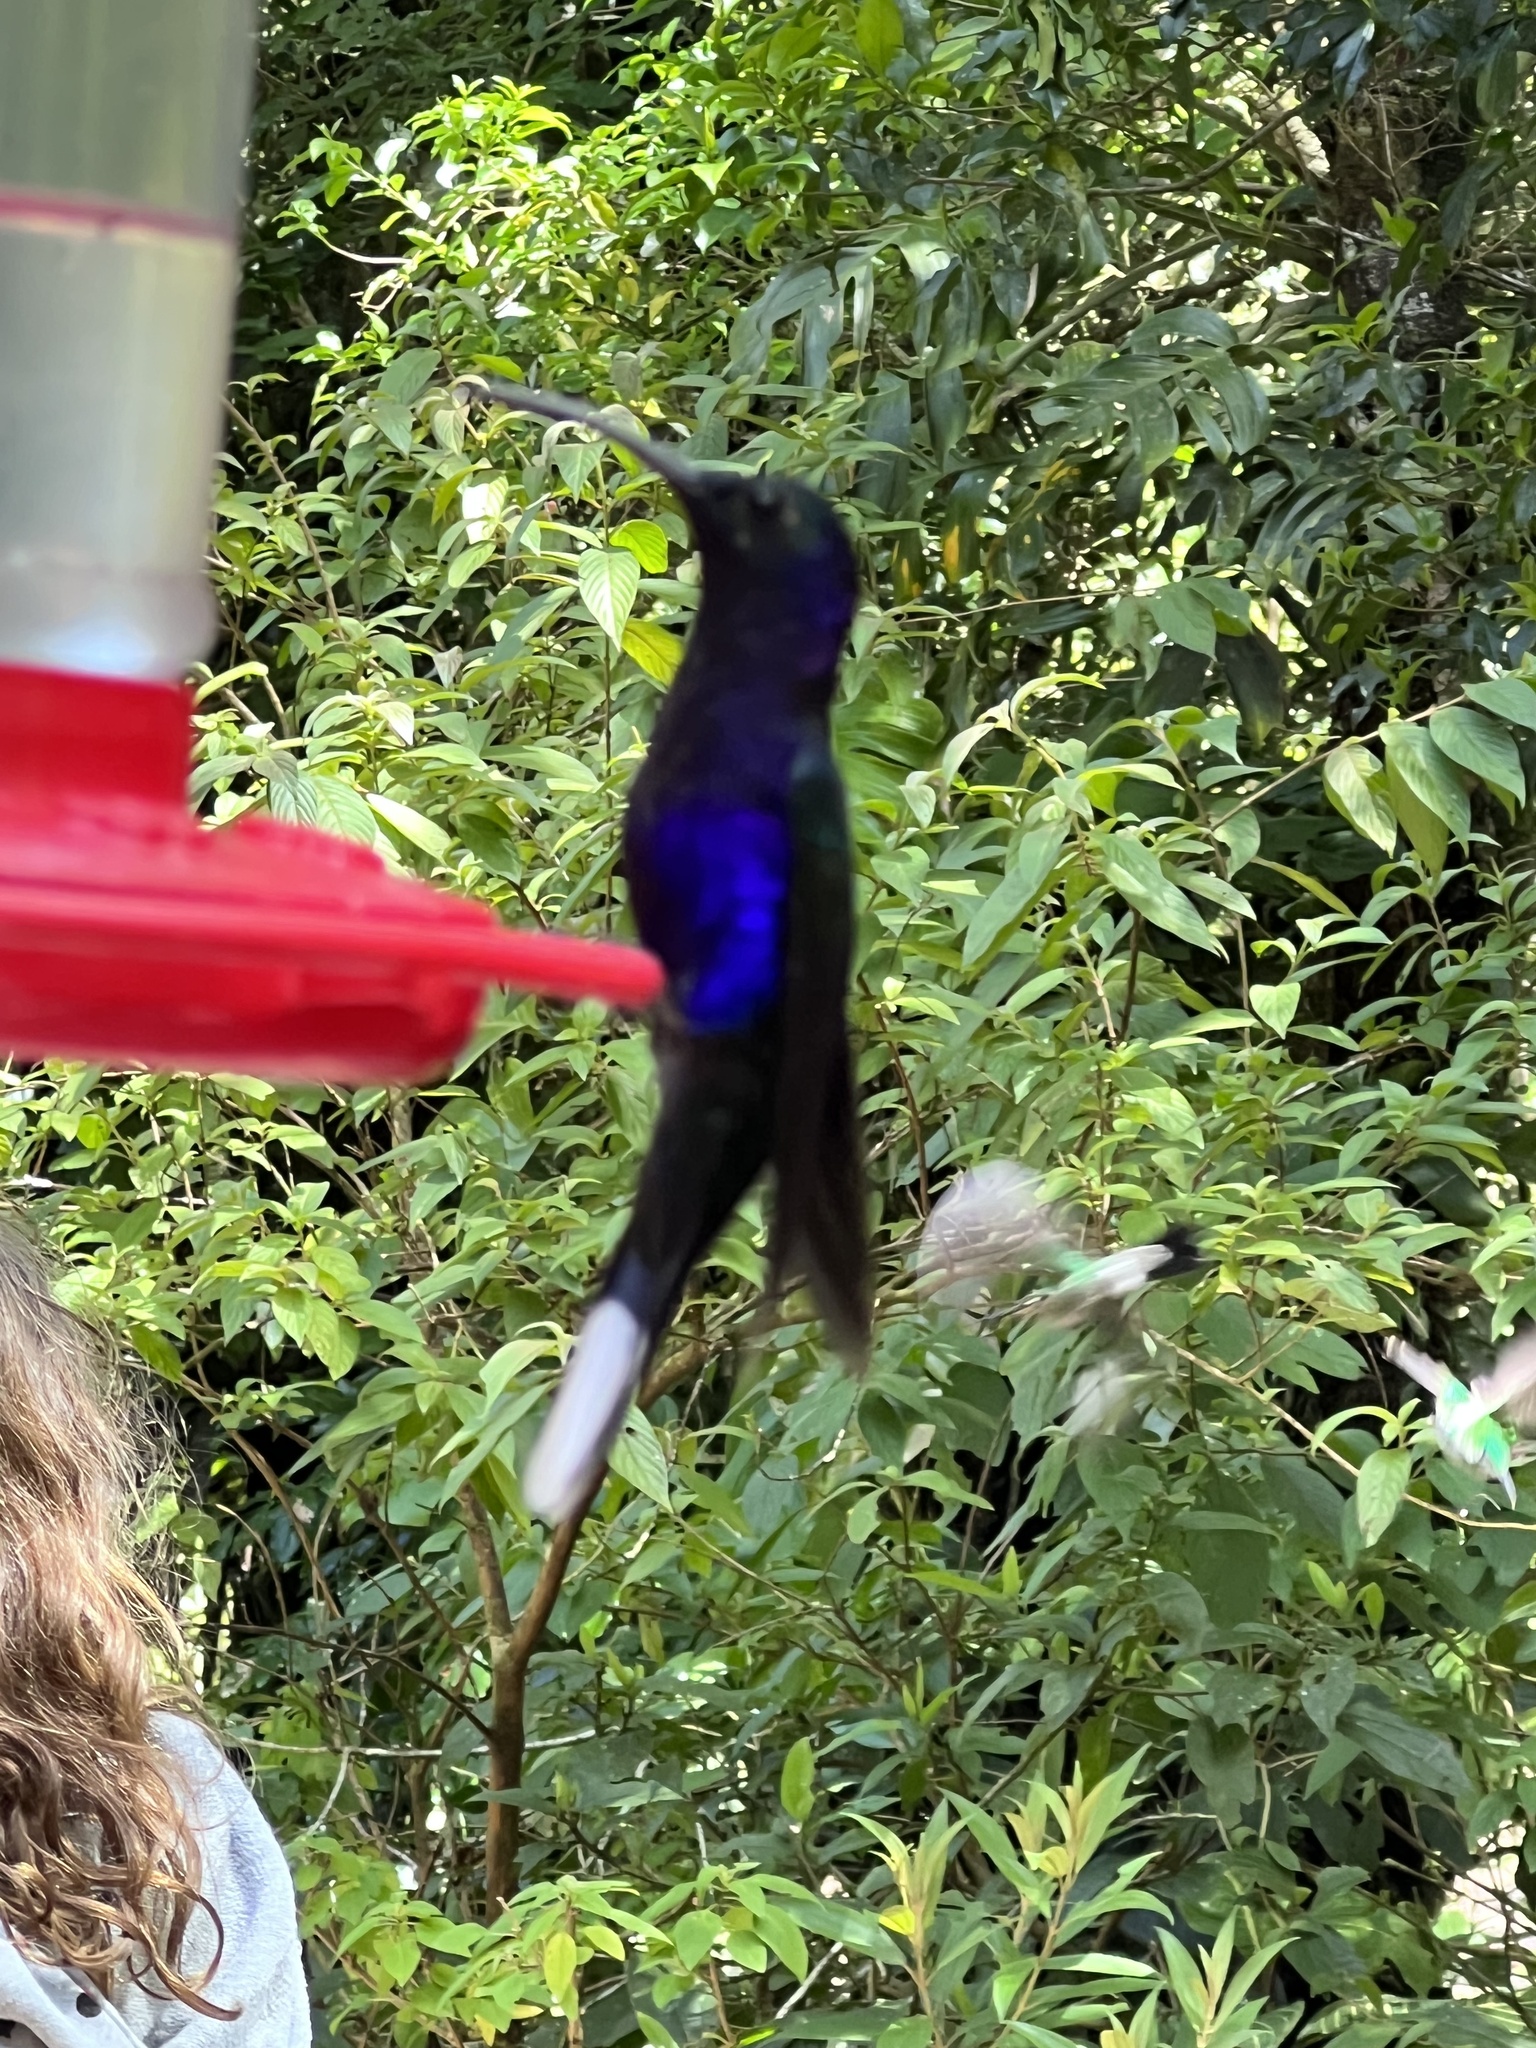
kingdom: Animalia
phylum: Chordata
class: Aves
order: Apodiformes
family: Trochilidae
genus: Campylopterus
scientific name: Campylopterus hemileucurus
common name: Violet sabrewing
